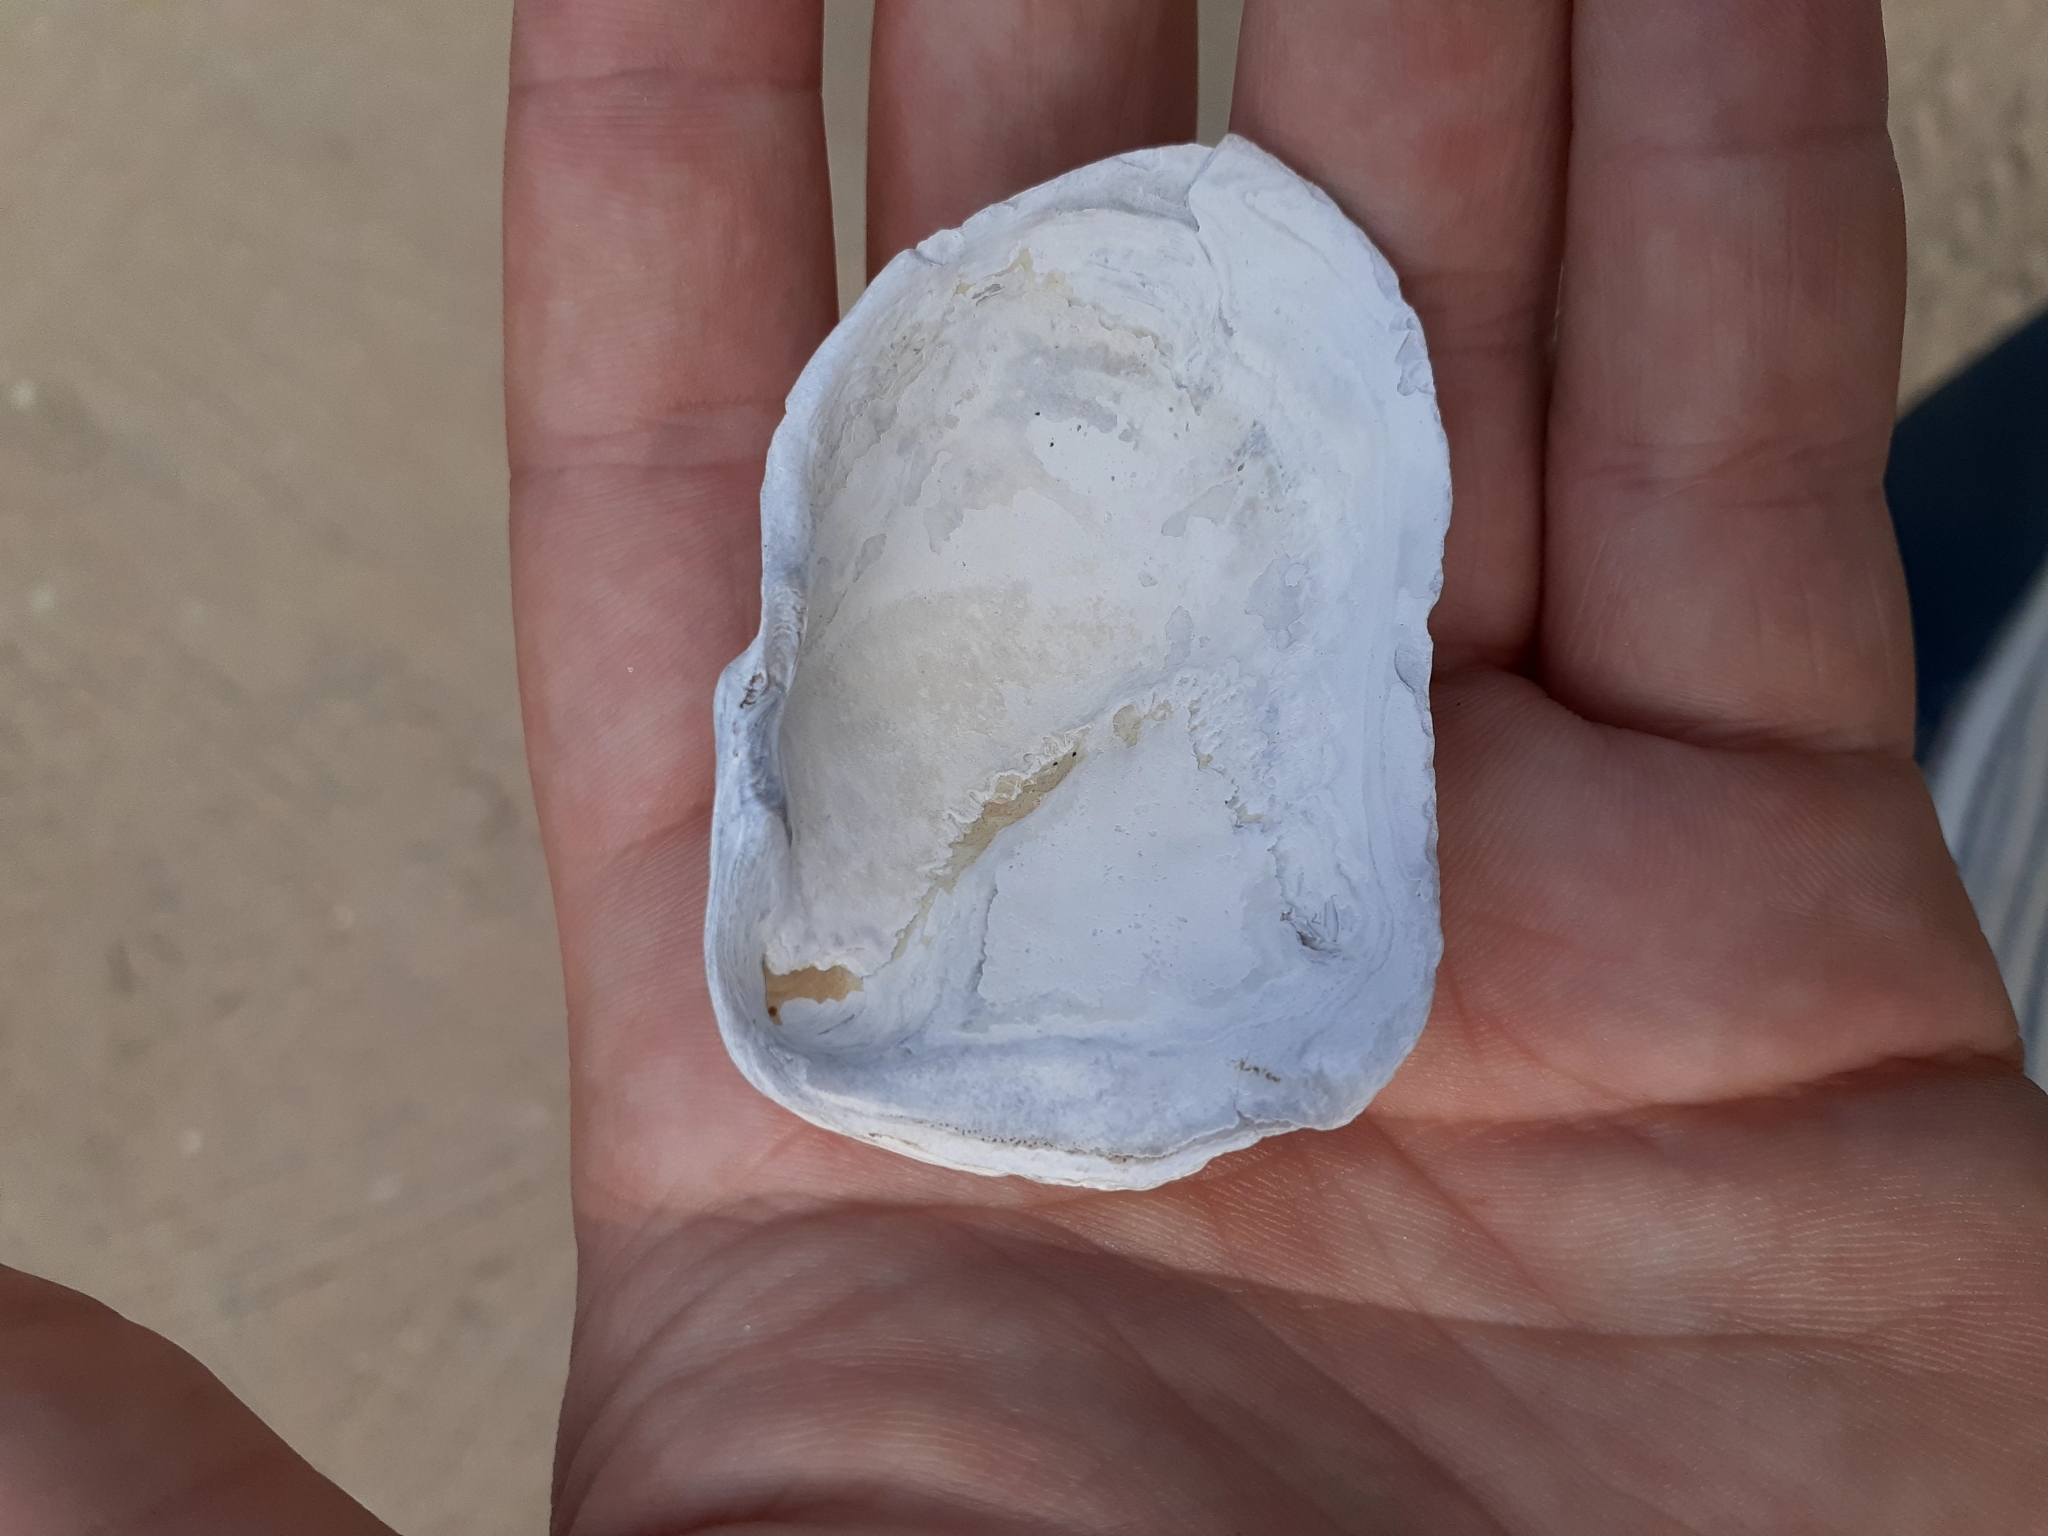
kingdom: Animalia
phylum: Mollusca
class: Bivalvia
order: Myida
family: Myidae
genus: Mya
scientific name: Mya truncata
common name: Blunt gaper
